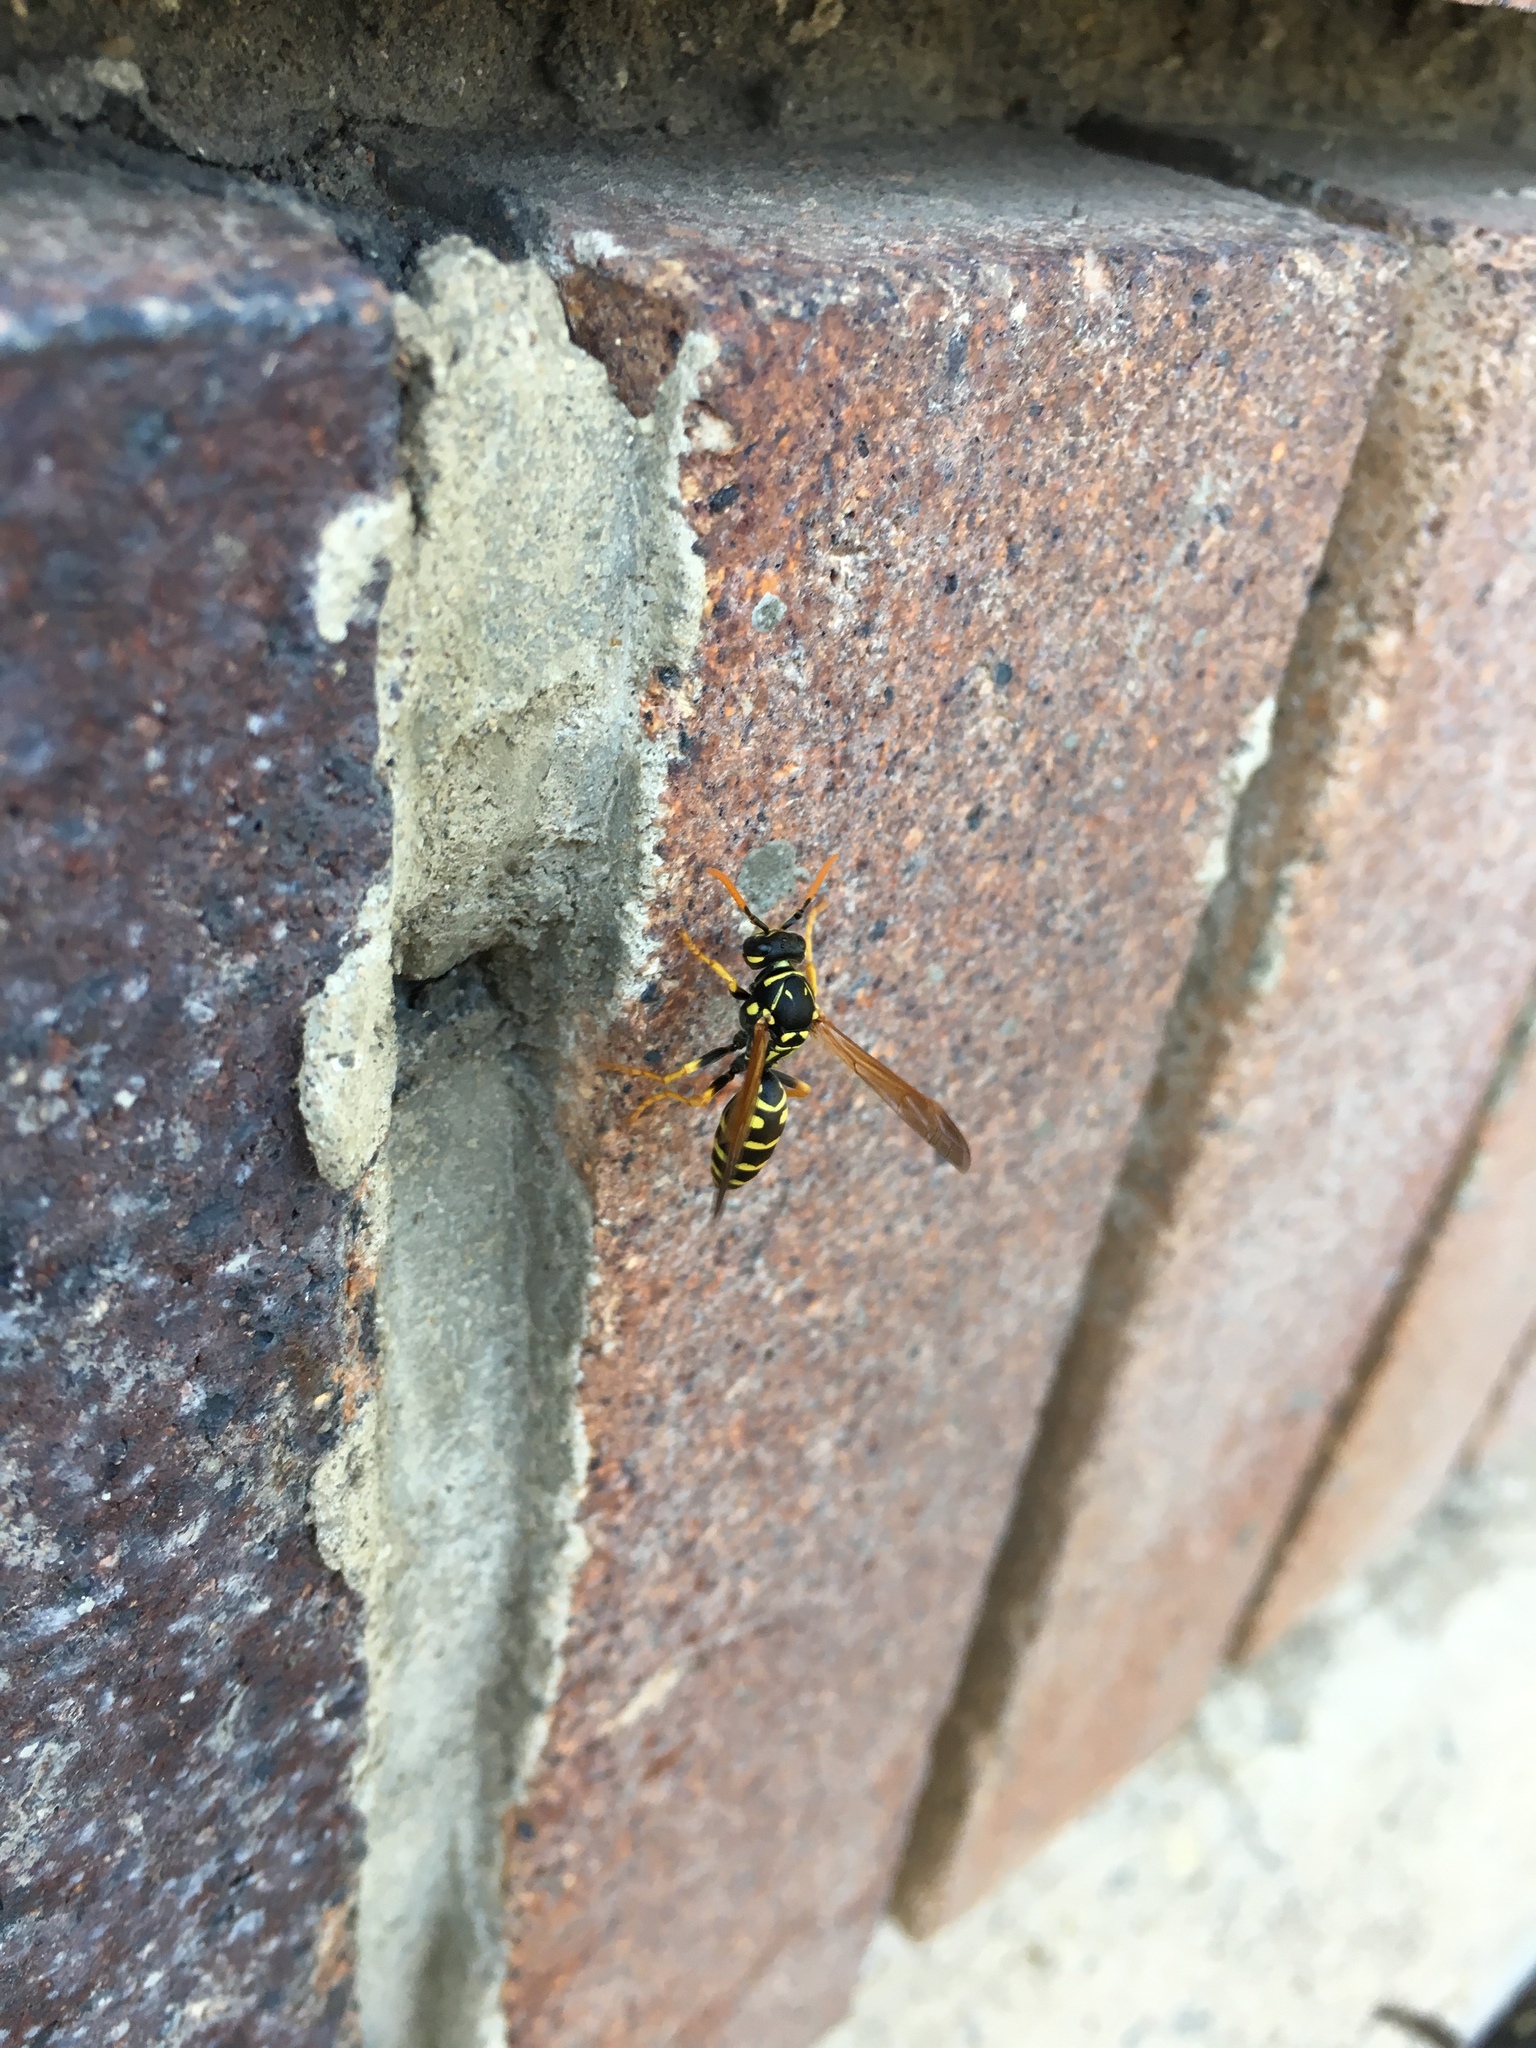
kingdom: Animalia
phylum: Arthropoda
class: Insecta
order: Hymenoptera
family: Eumenidae
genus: Polistes
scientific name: Polistes dominula
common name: Paper wasp
